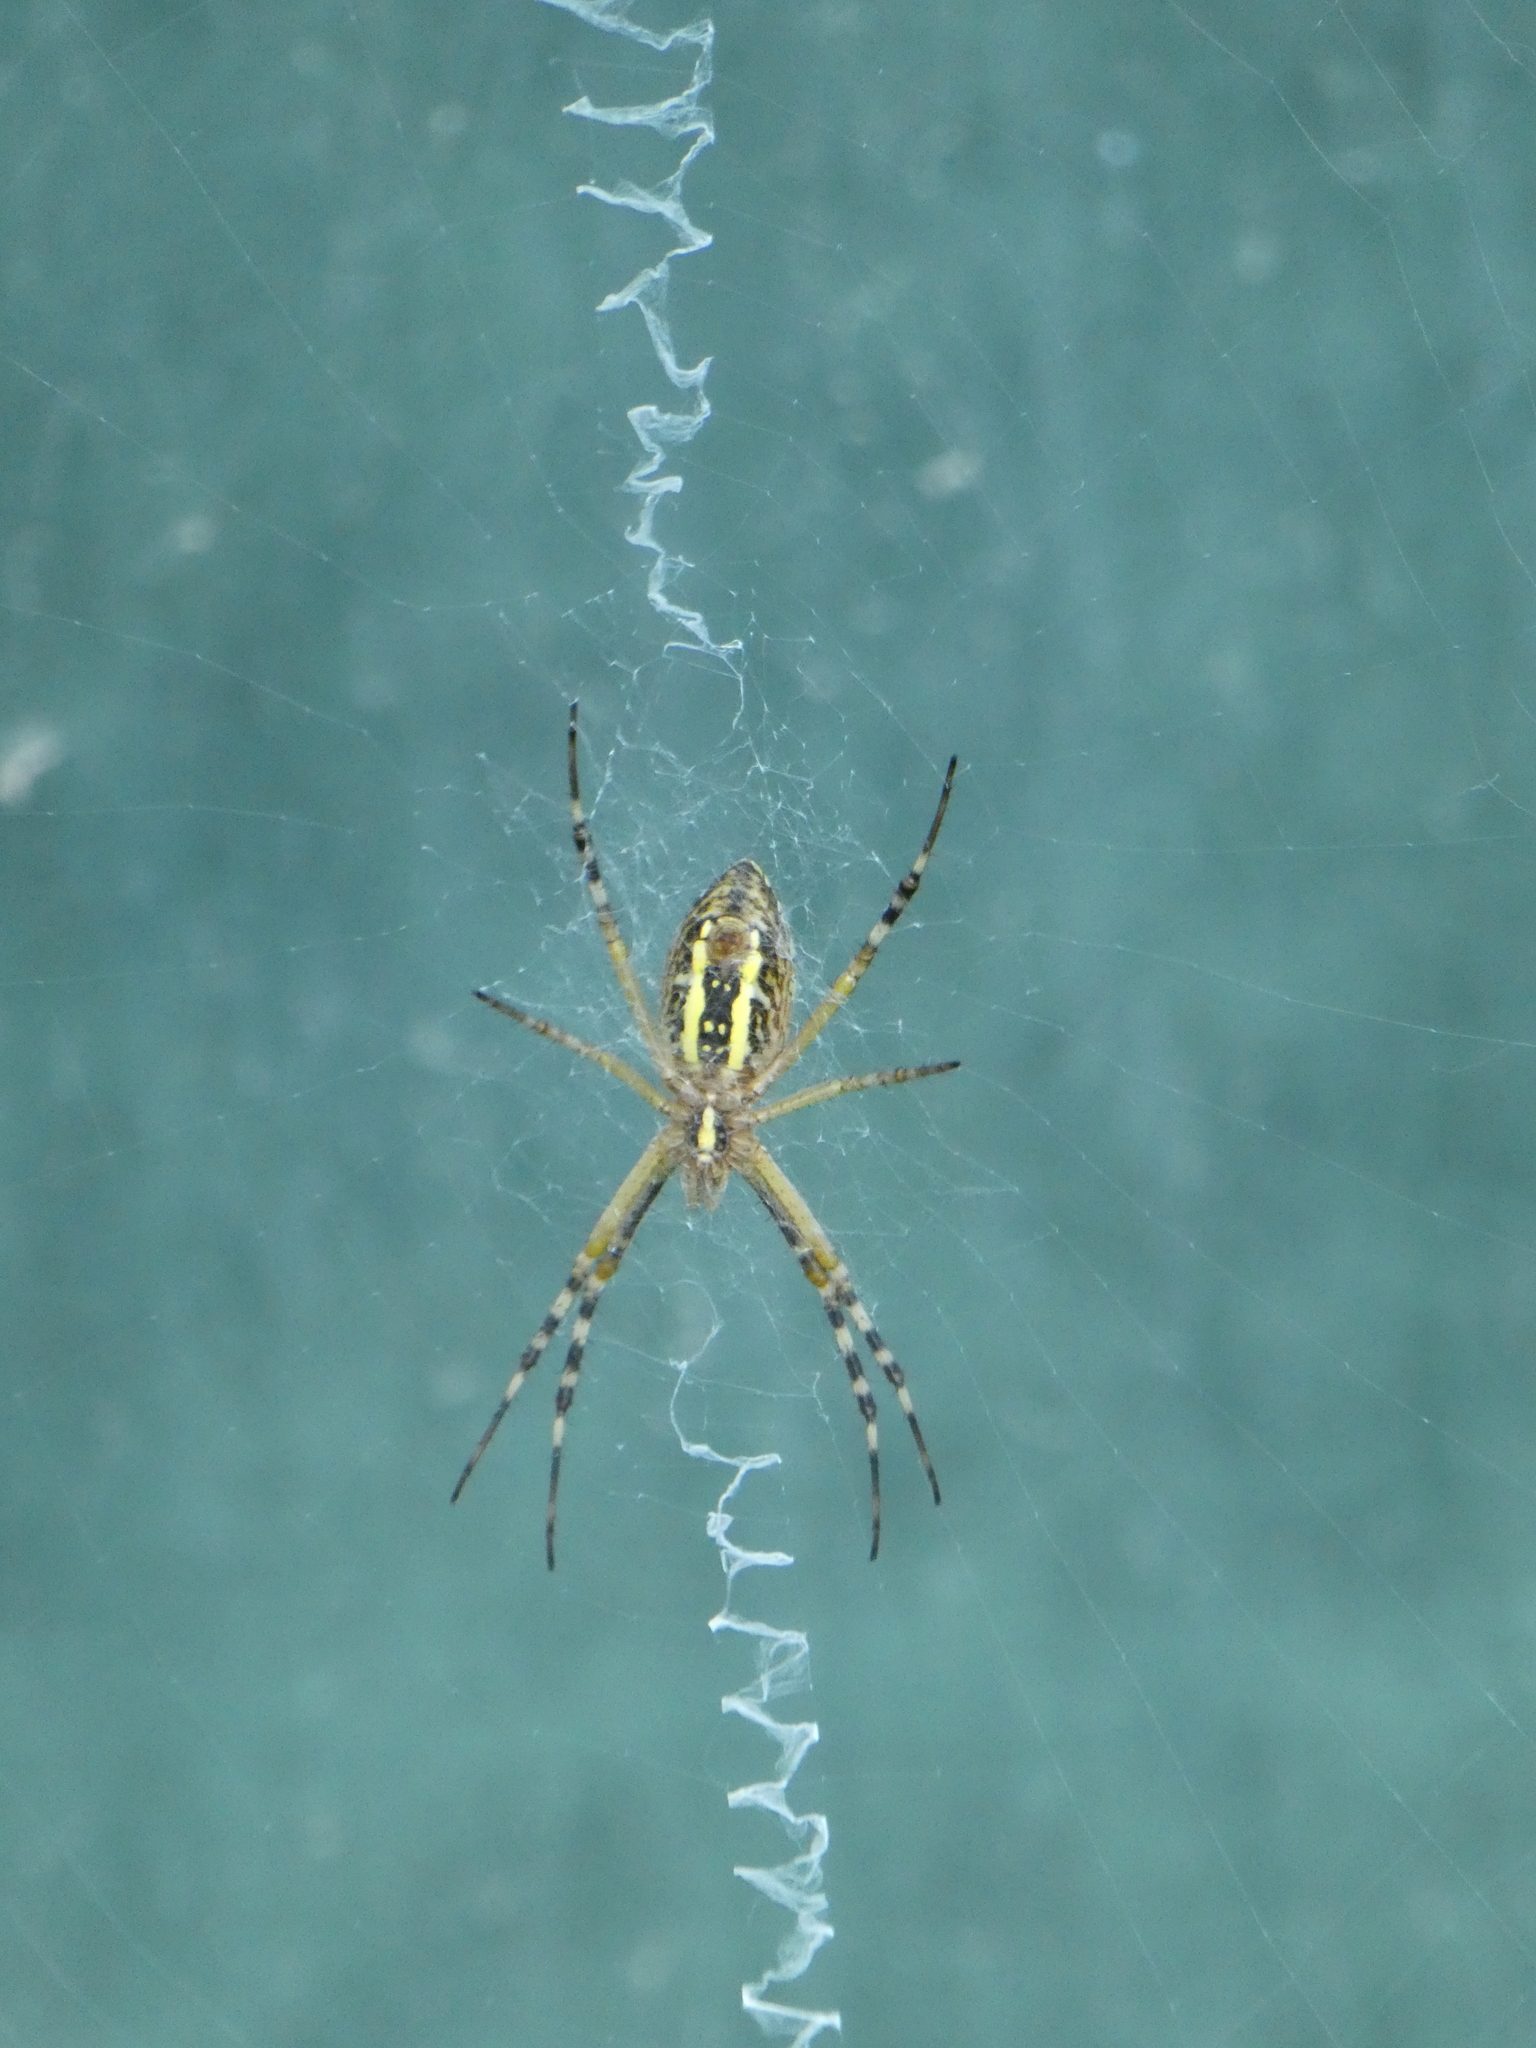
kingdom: Animalia
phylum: Arthropoda
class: Arachnida
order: Araneae
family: Araneidae
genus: Argiope
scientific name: Argiope bruennichi
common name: Wasp spider
